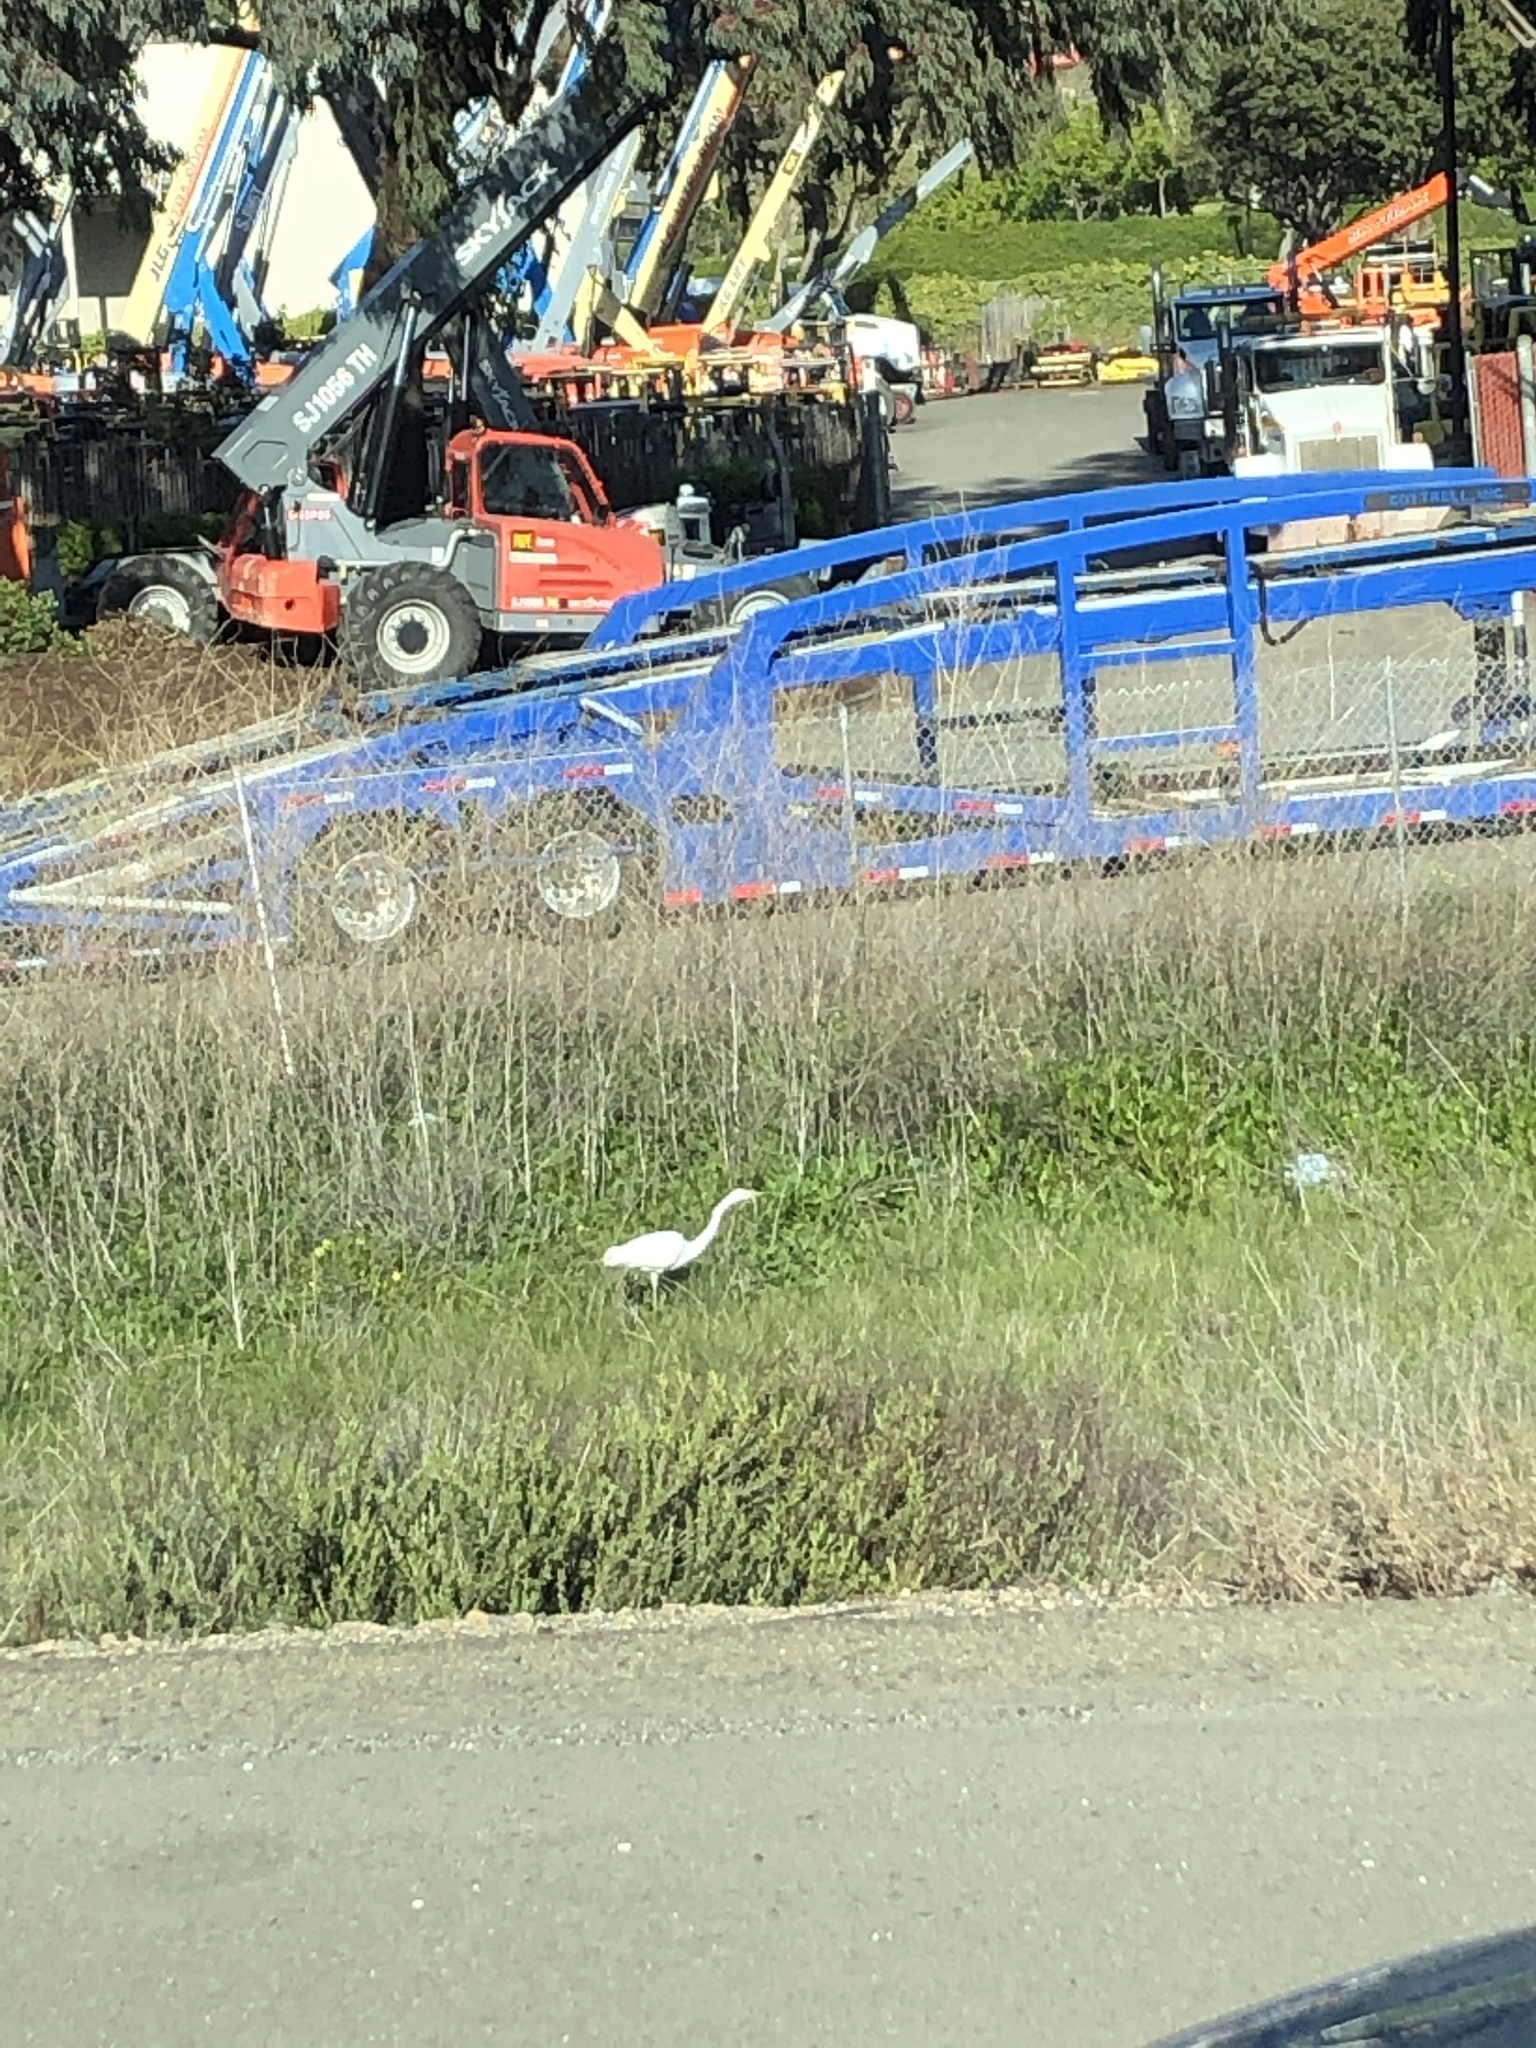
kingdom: Animalia
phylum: Chordata
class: Aves
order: Pelecaniformes
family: Ardeidae
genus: Ardea
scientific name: Ardea alba
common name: Great egret
